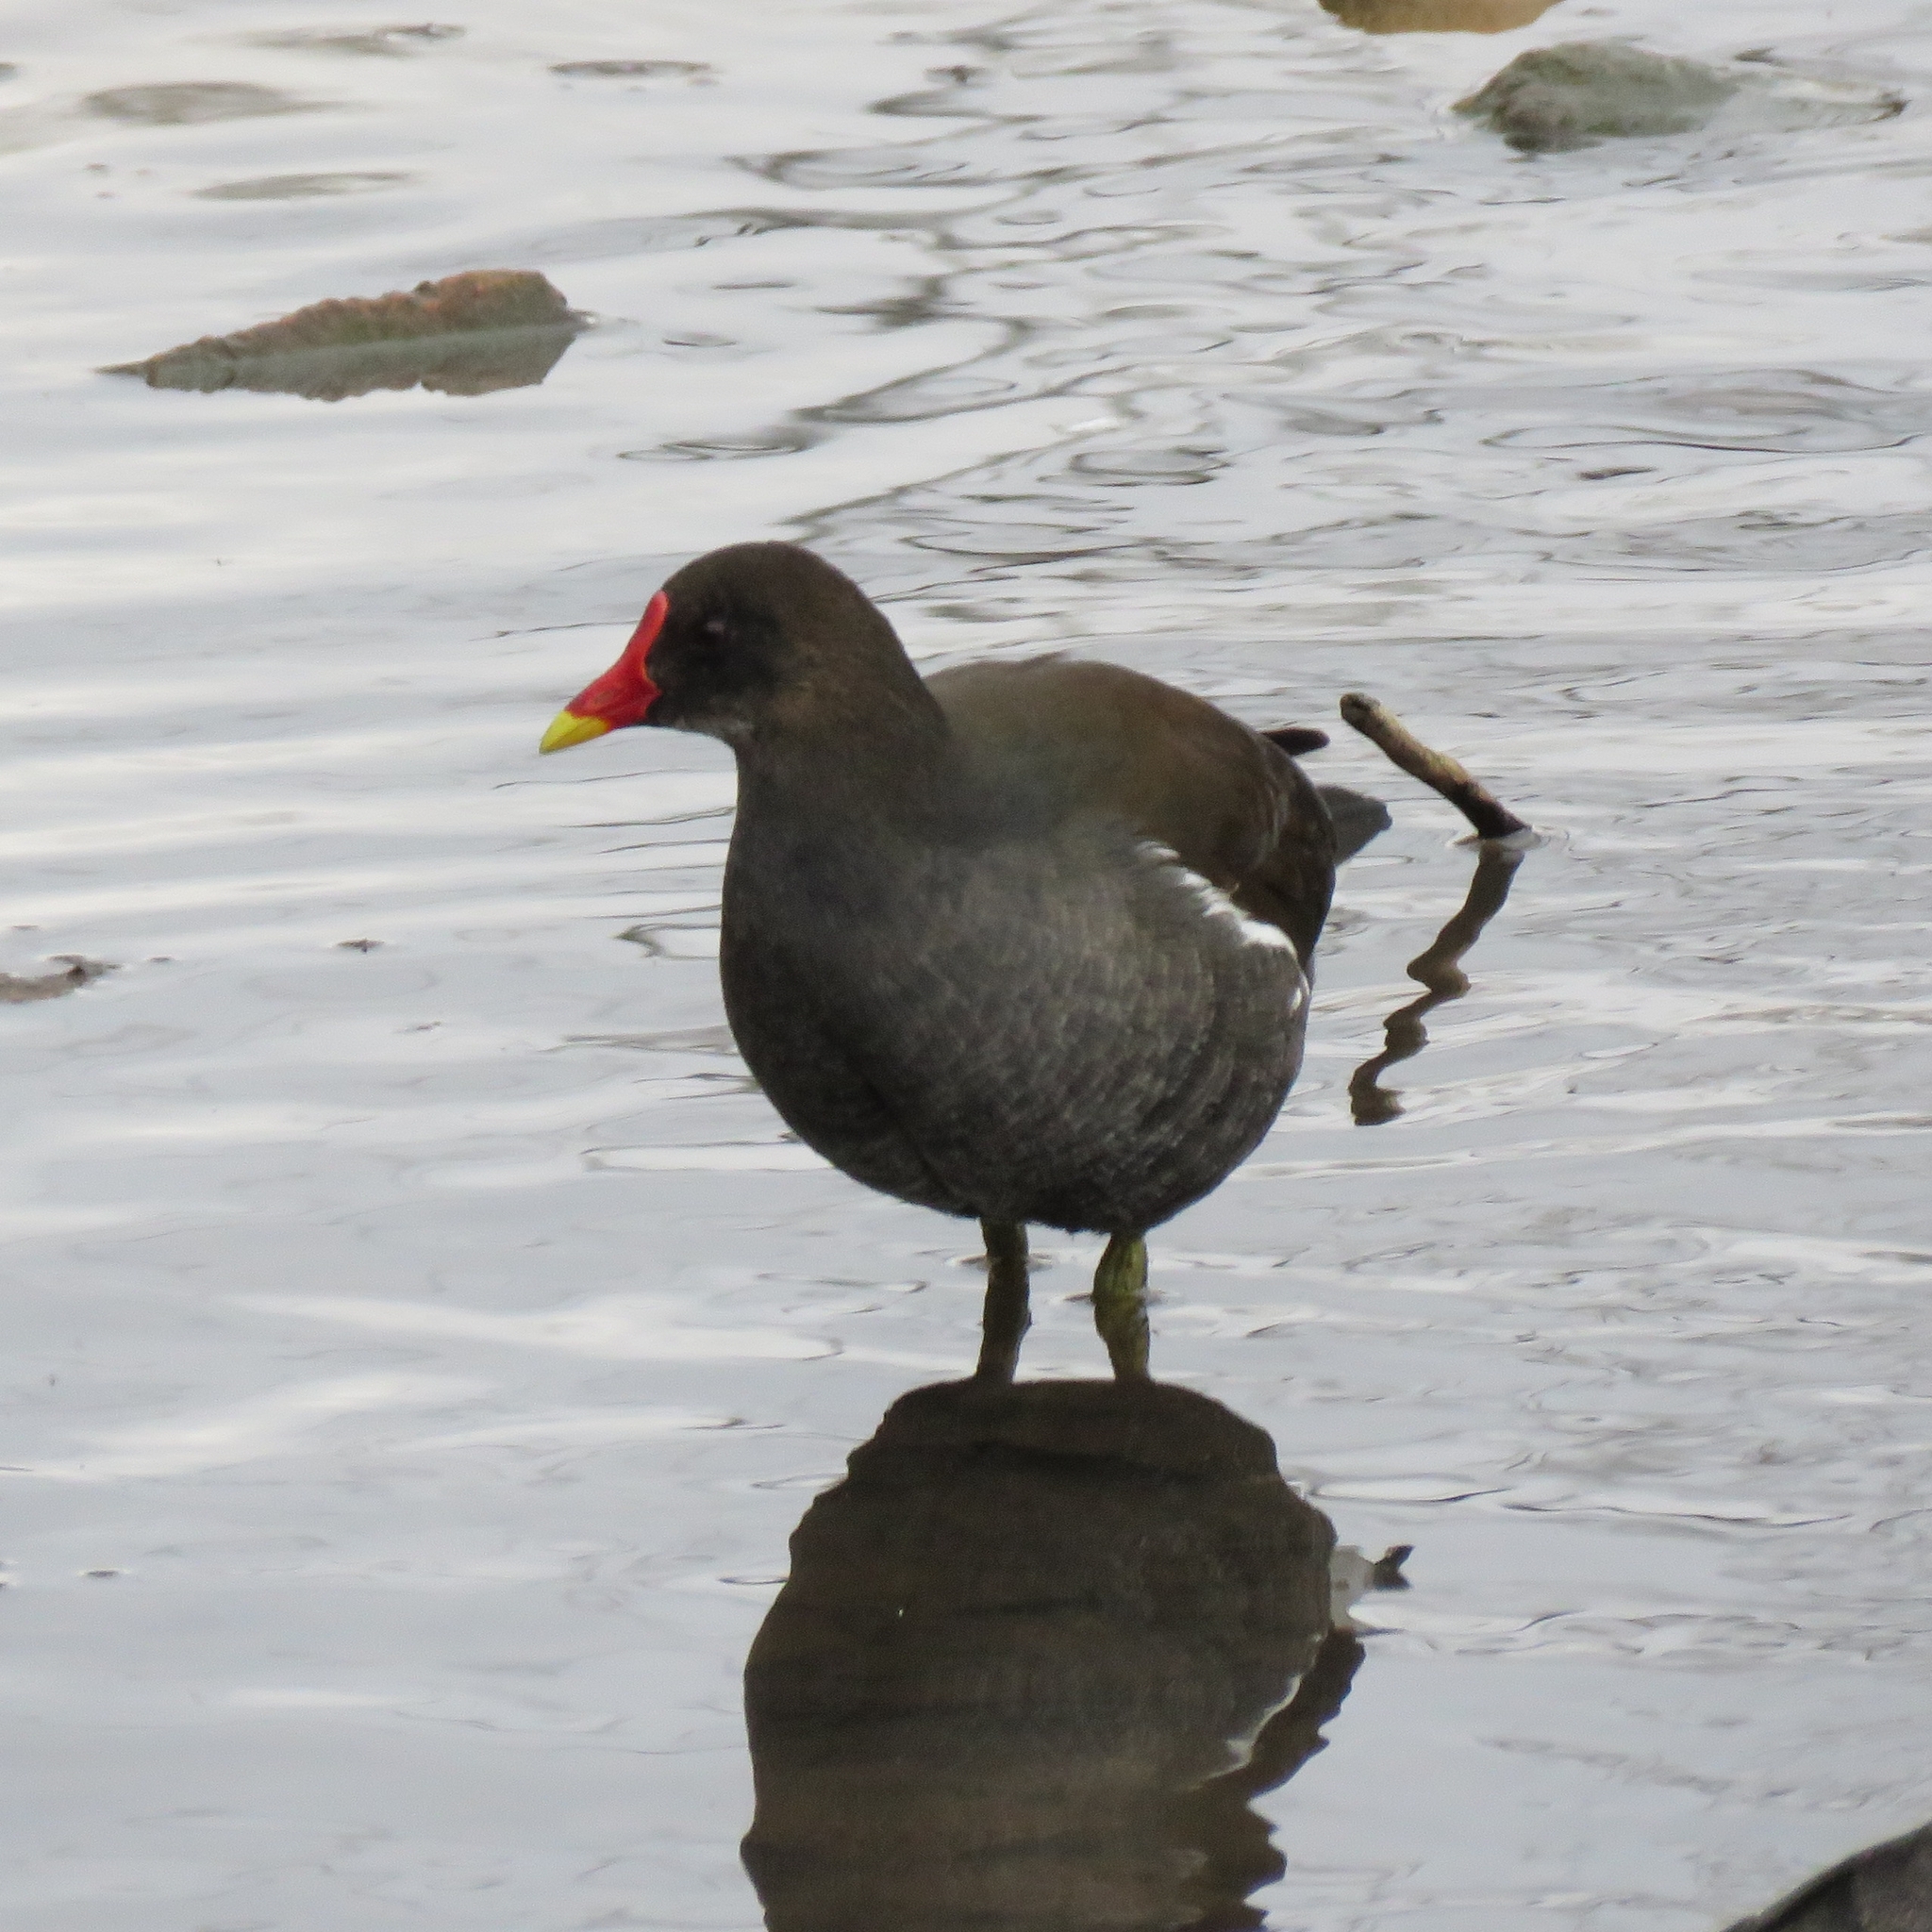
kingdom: Animalia
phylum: Chordata
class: Aves
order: Gruiformes
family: Rallidae
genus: Gallinula
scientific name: Gallinula chloropus
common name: Common moorhen
